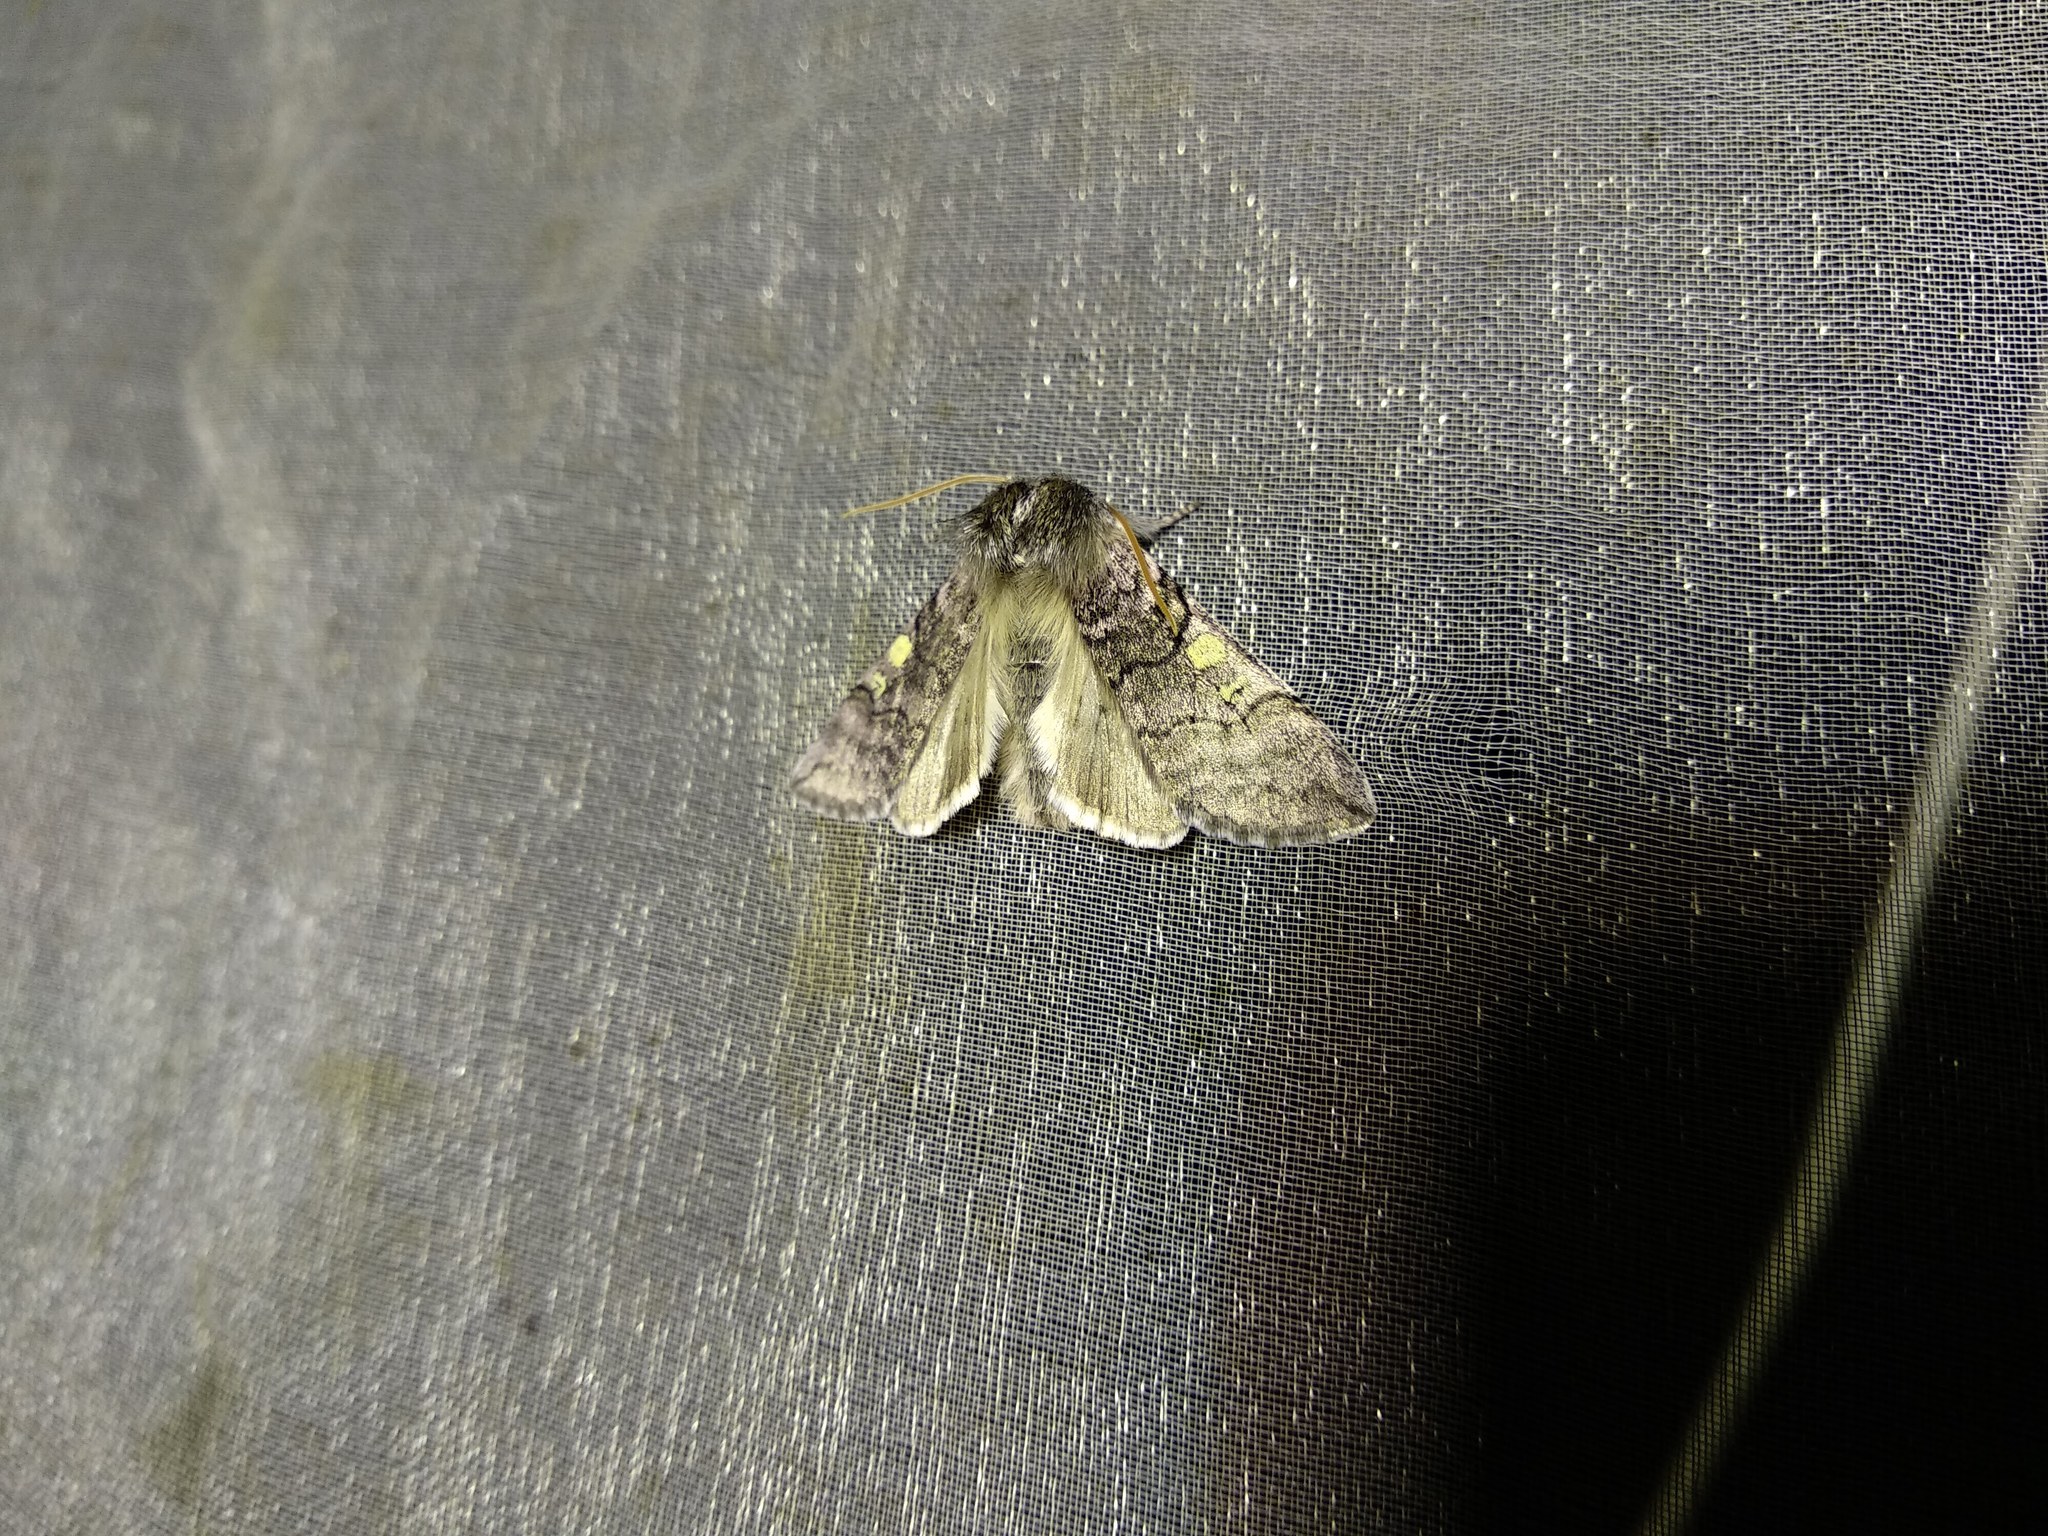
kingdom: Animalia
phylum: Arthropoda
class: Insecta
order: Lepidoptera
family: Drepanidae
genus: Achlya
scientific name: Achlya flavicornis
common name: Yellow horned
